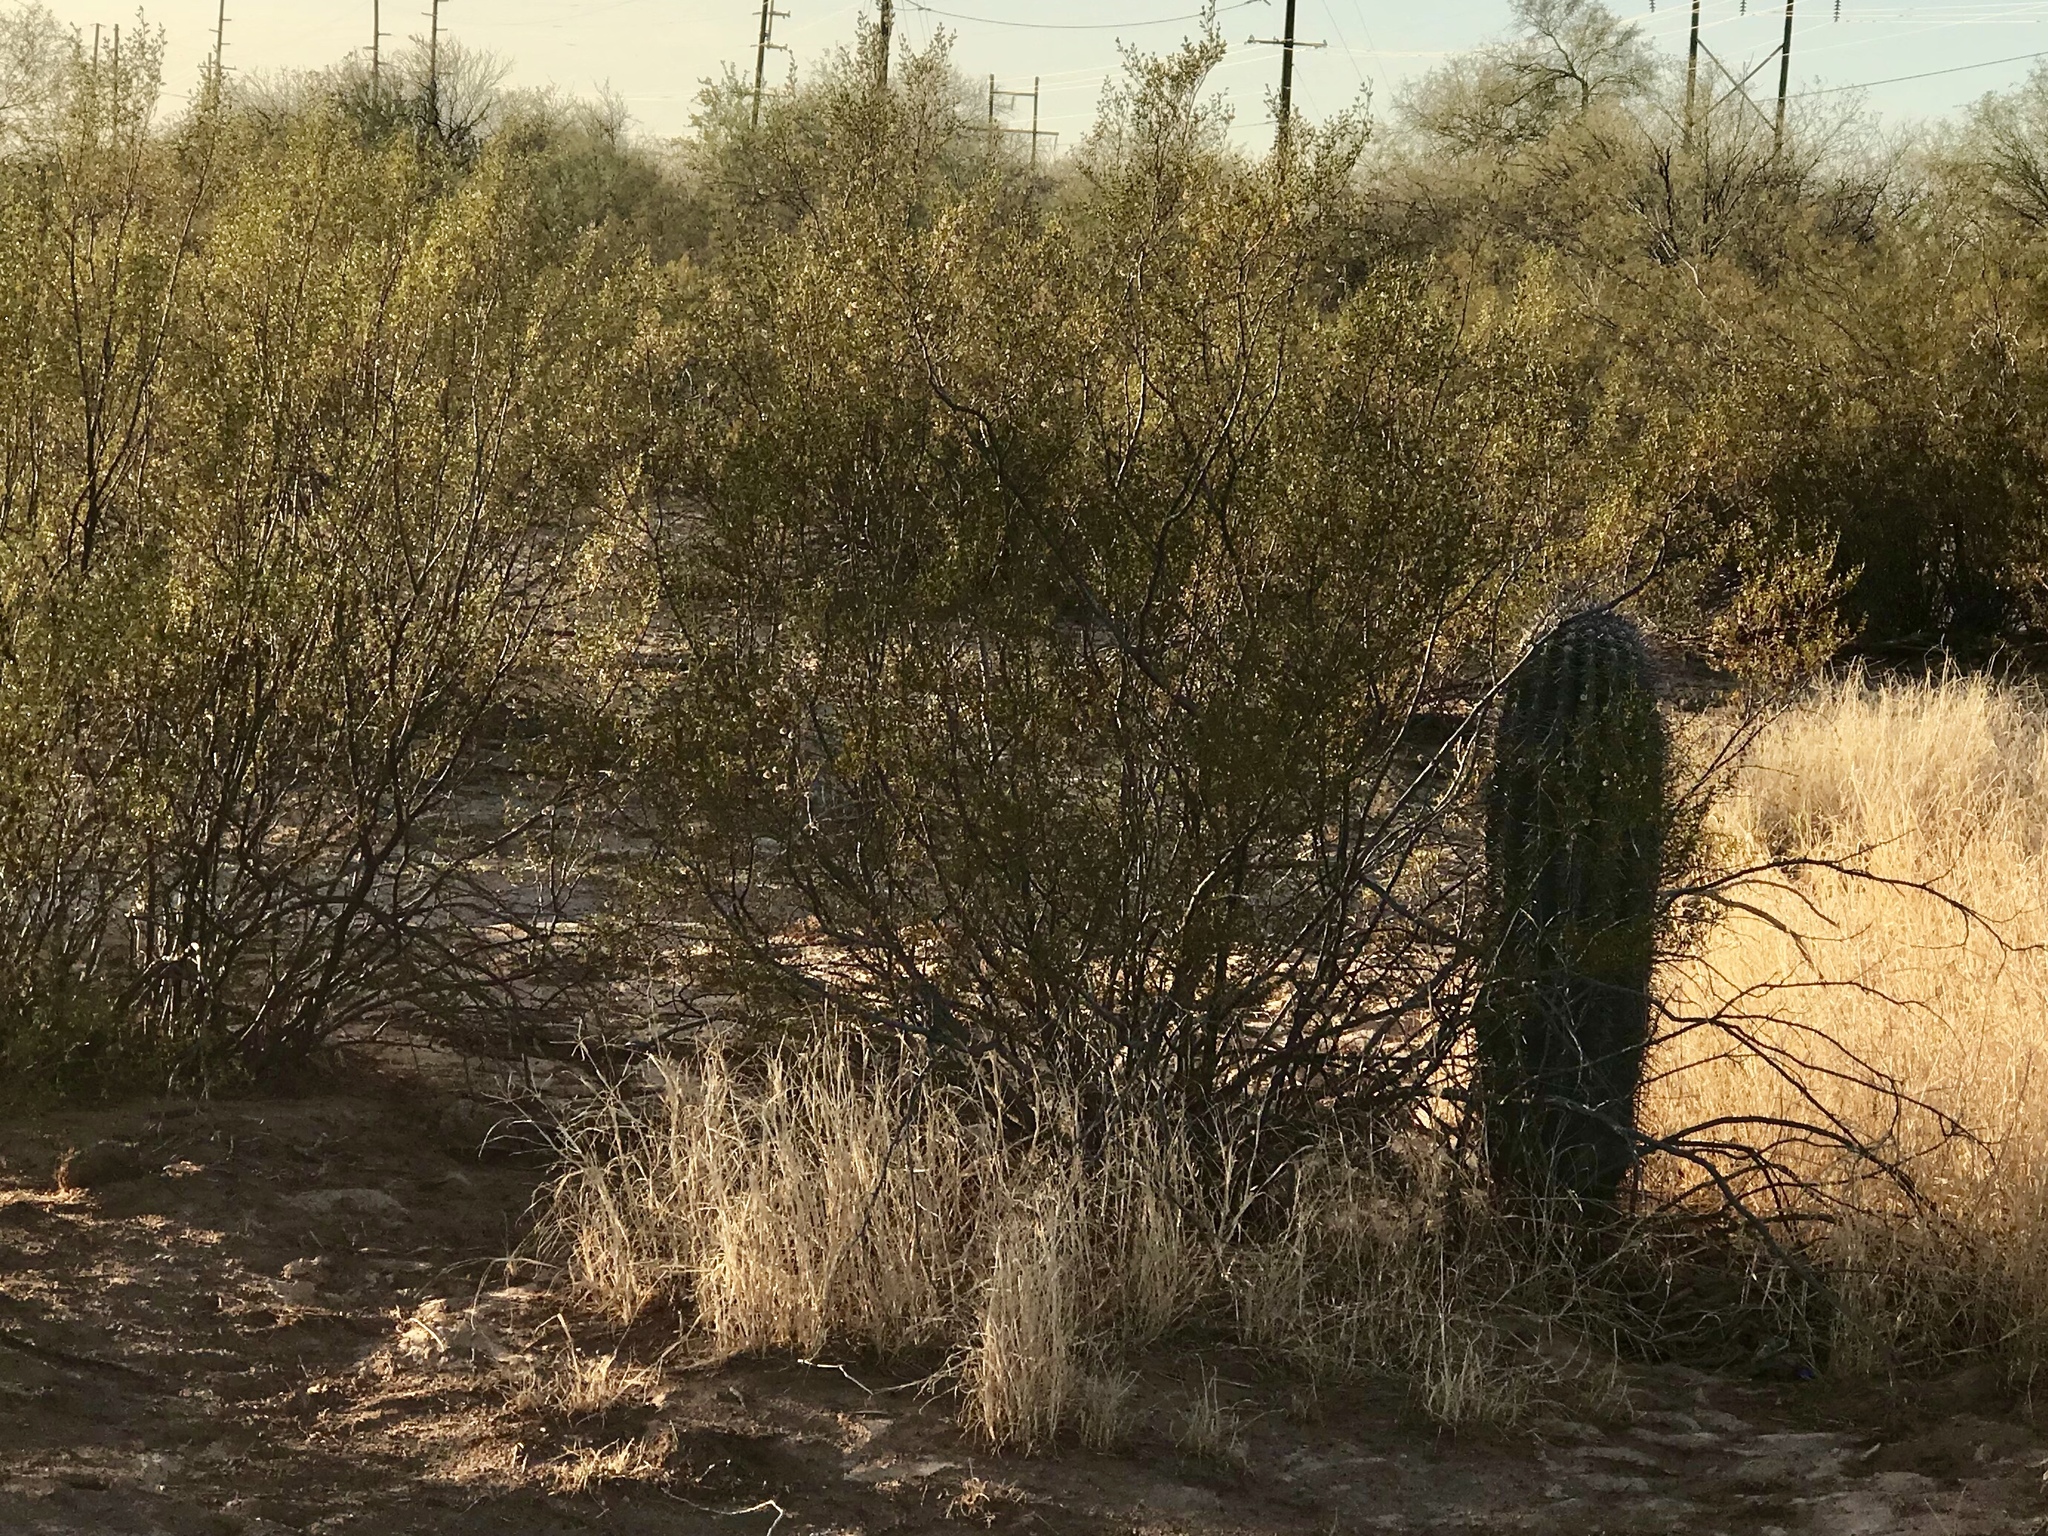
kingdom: Plantae
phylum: Tracheophyta
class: Magnoliopsida
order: Zygophyllales
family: Zygophyllaceae
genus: Larrea
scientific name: Larrea tridentata
